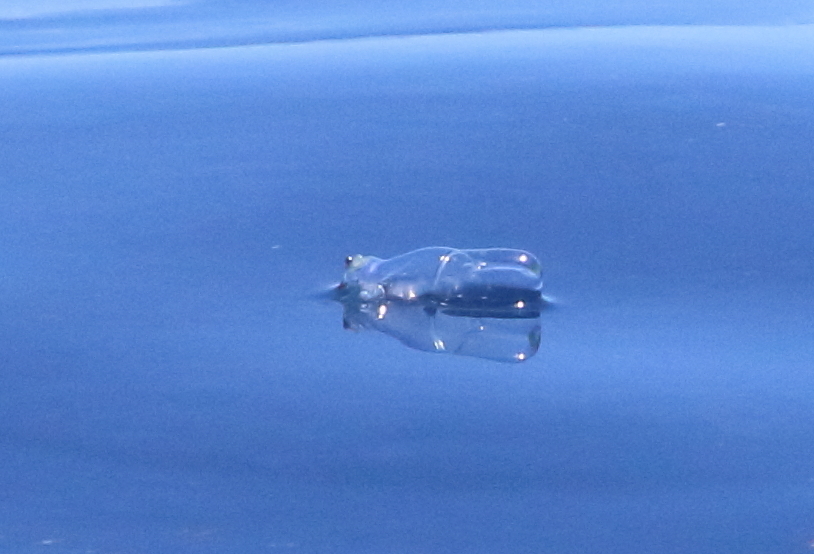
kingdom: Animalia
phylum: Cnidaria
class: Hydrozoa
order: Siphonophorae
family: Physaliidae
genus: Physalia
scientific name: Physalia physalis
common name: Portuguese man-of-war
